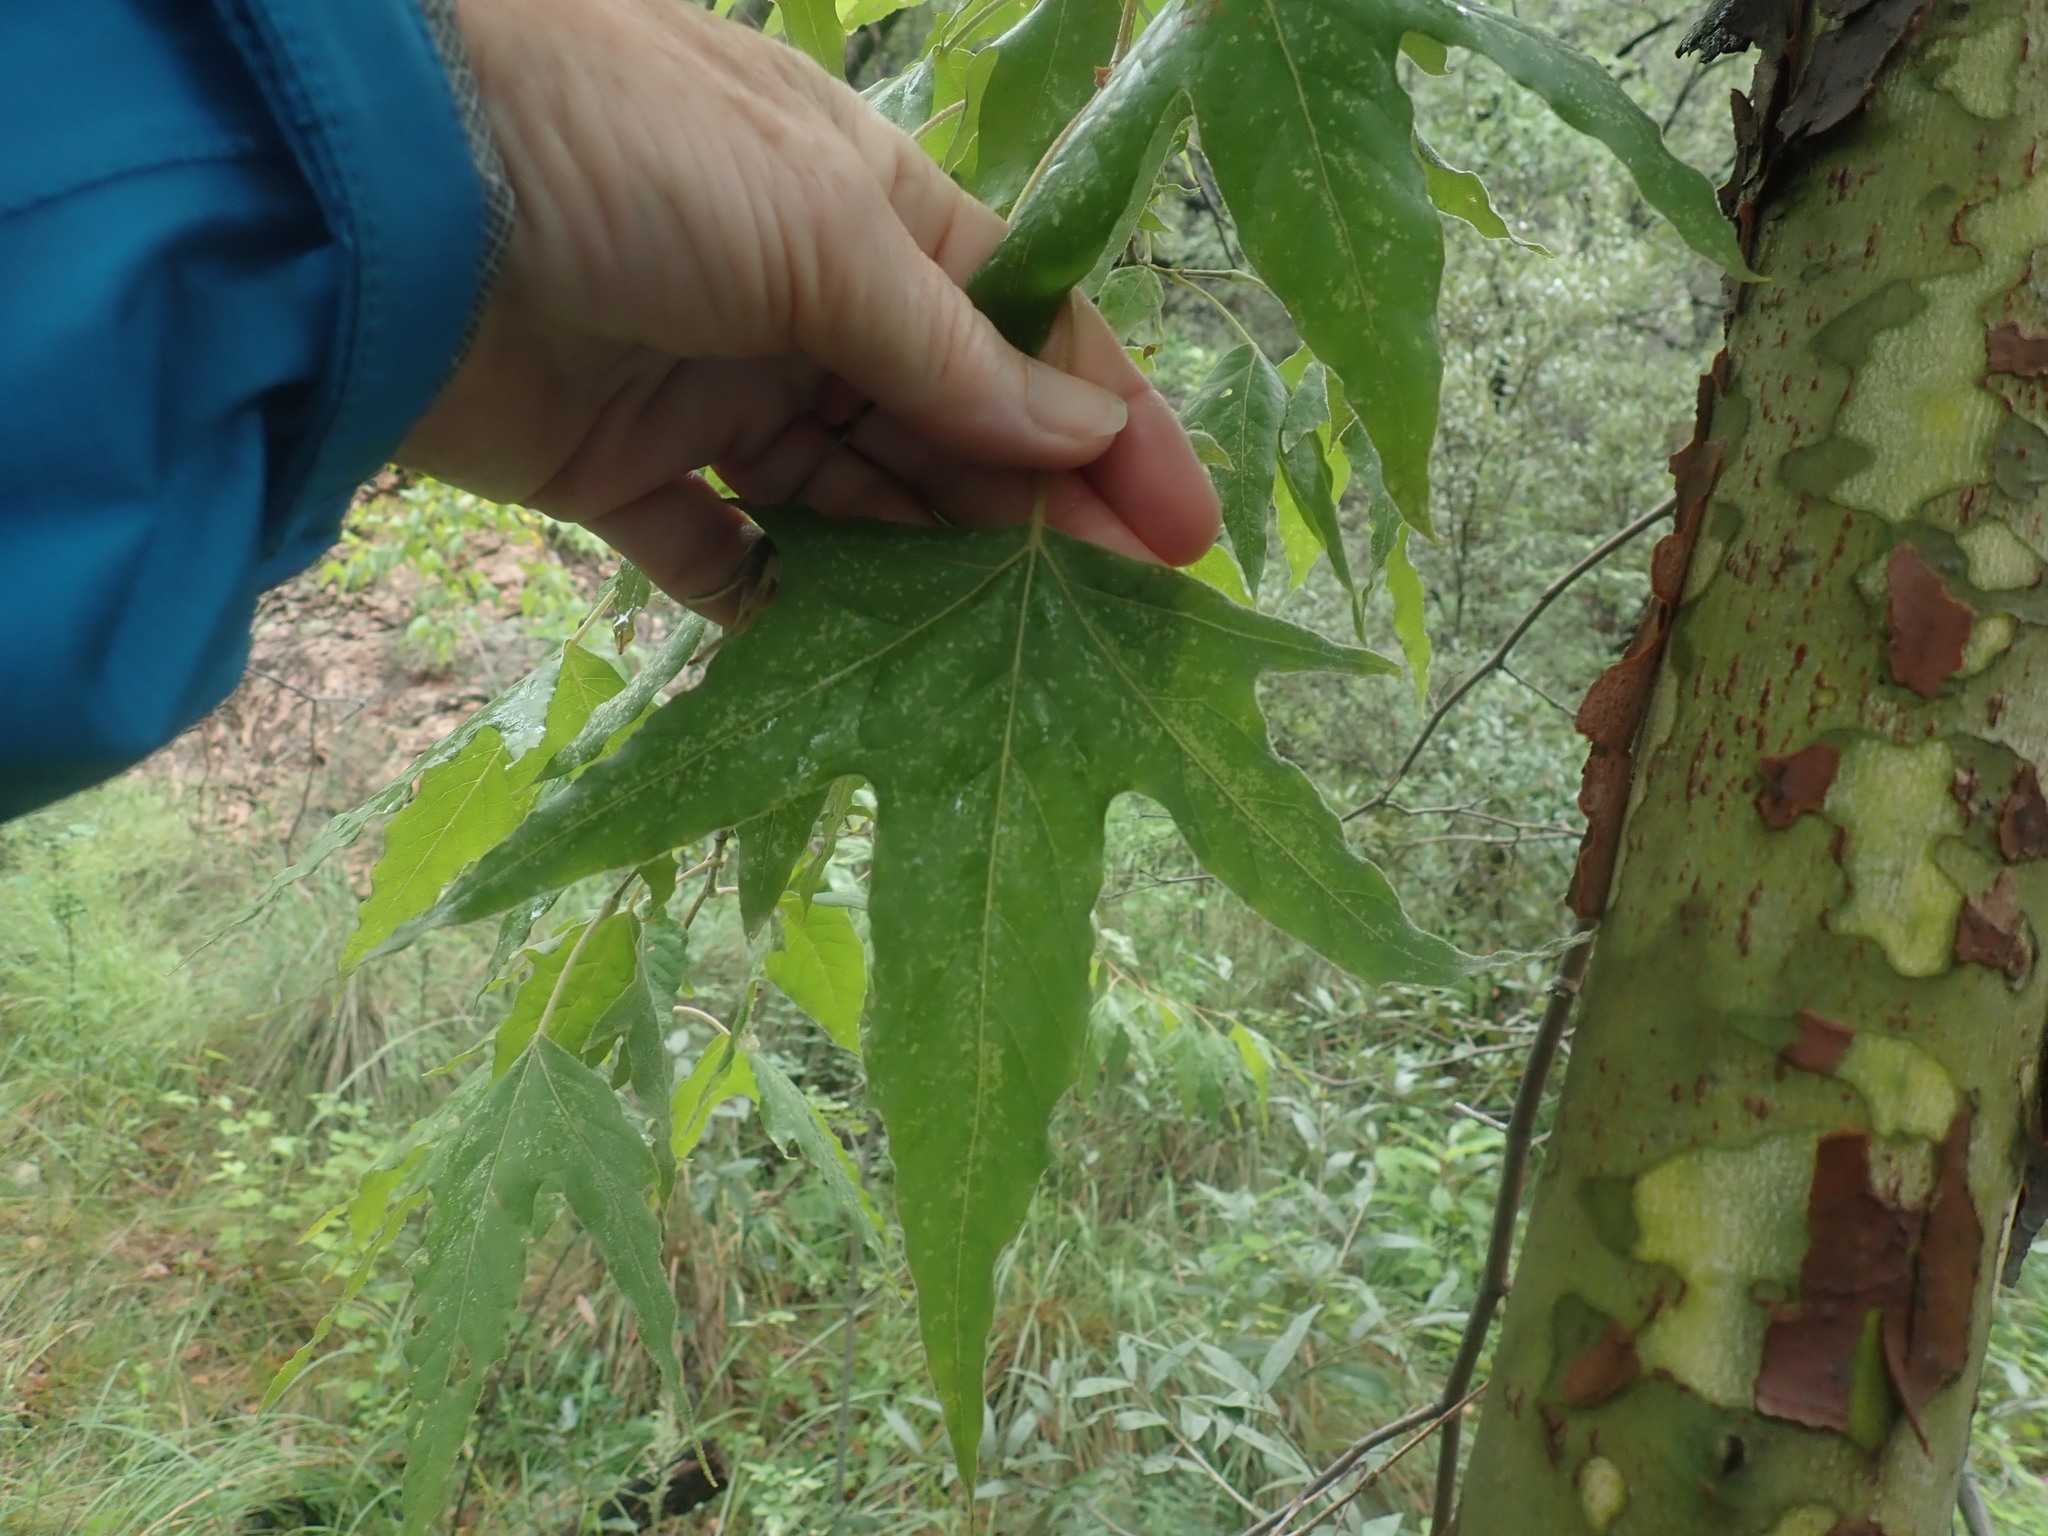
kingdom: Plantae
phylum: Tracheophyta
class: Magnoliopsida
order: Proteales
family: Platanaceae
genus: Platanus
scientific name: Platanus wrightii
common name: Arizona sycamore
